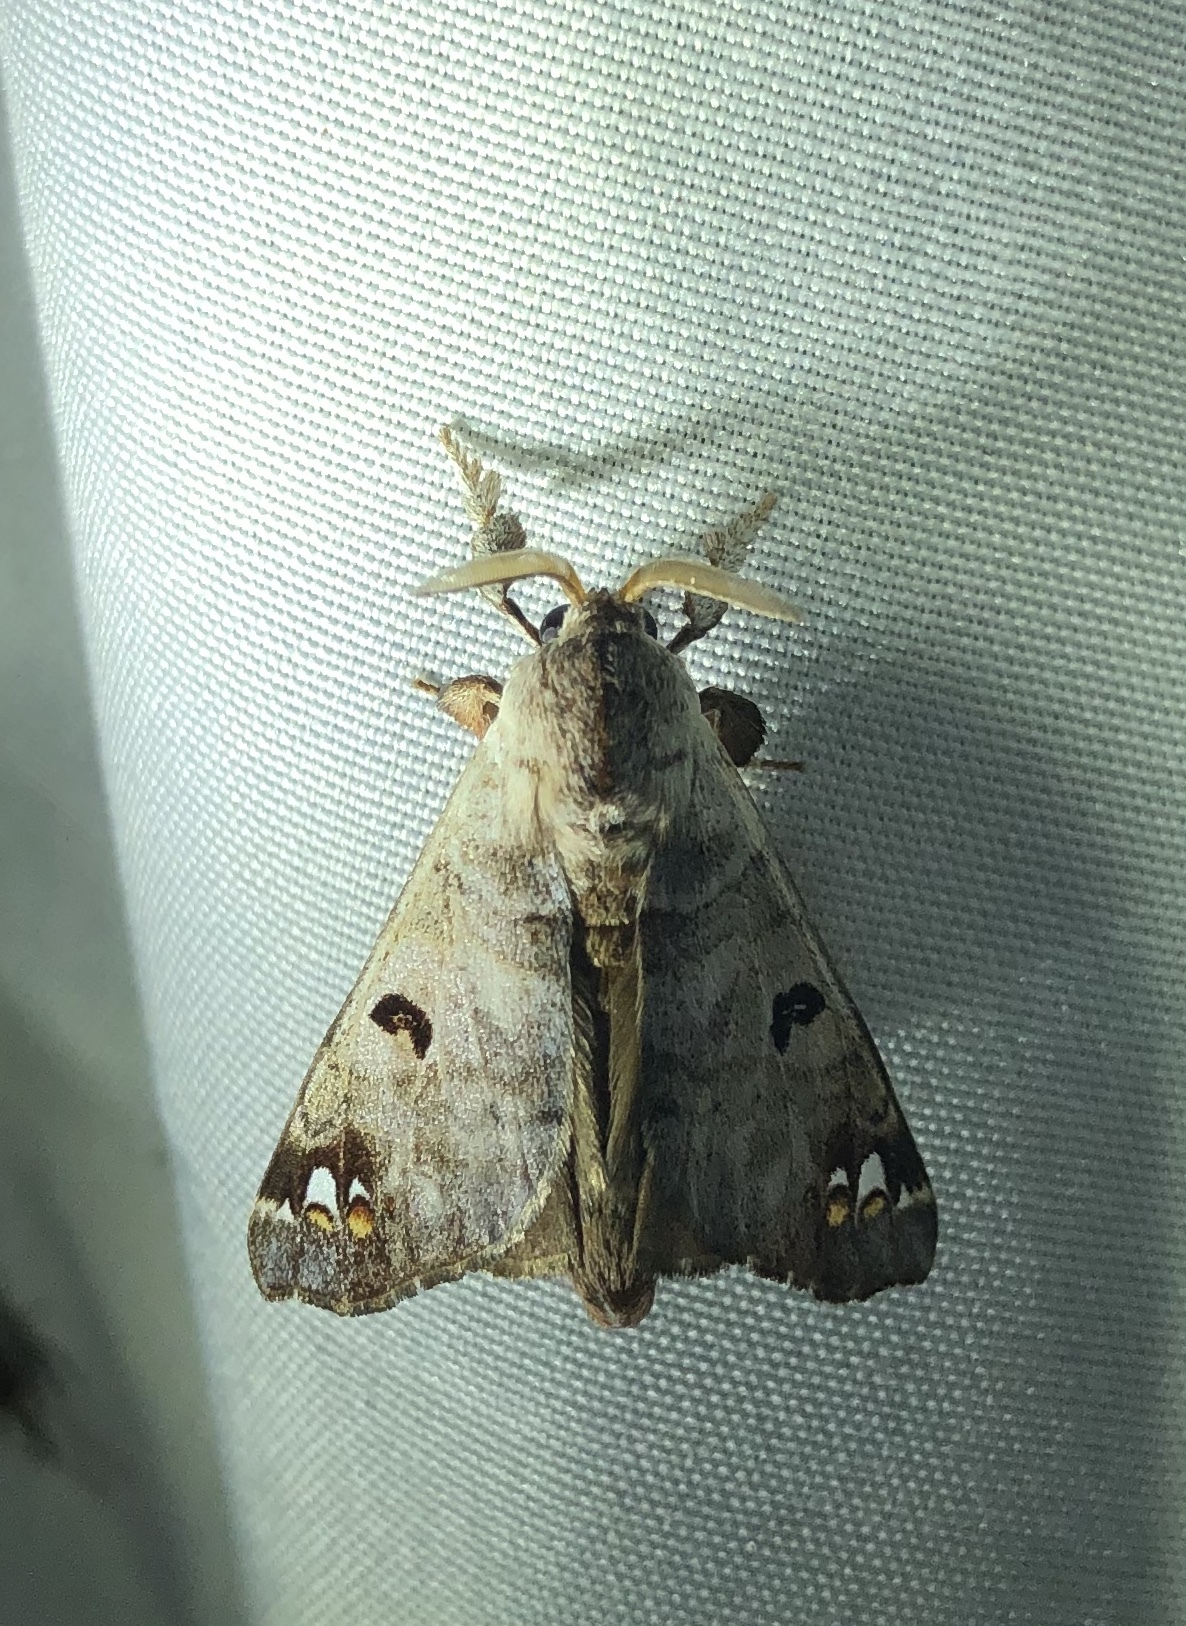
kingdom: Animalia
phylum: Arthropoda
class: Insecta
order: Lepidoptera
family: Apatelodidae
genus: Pantelodes
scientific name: Pantelodes centralamericana
